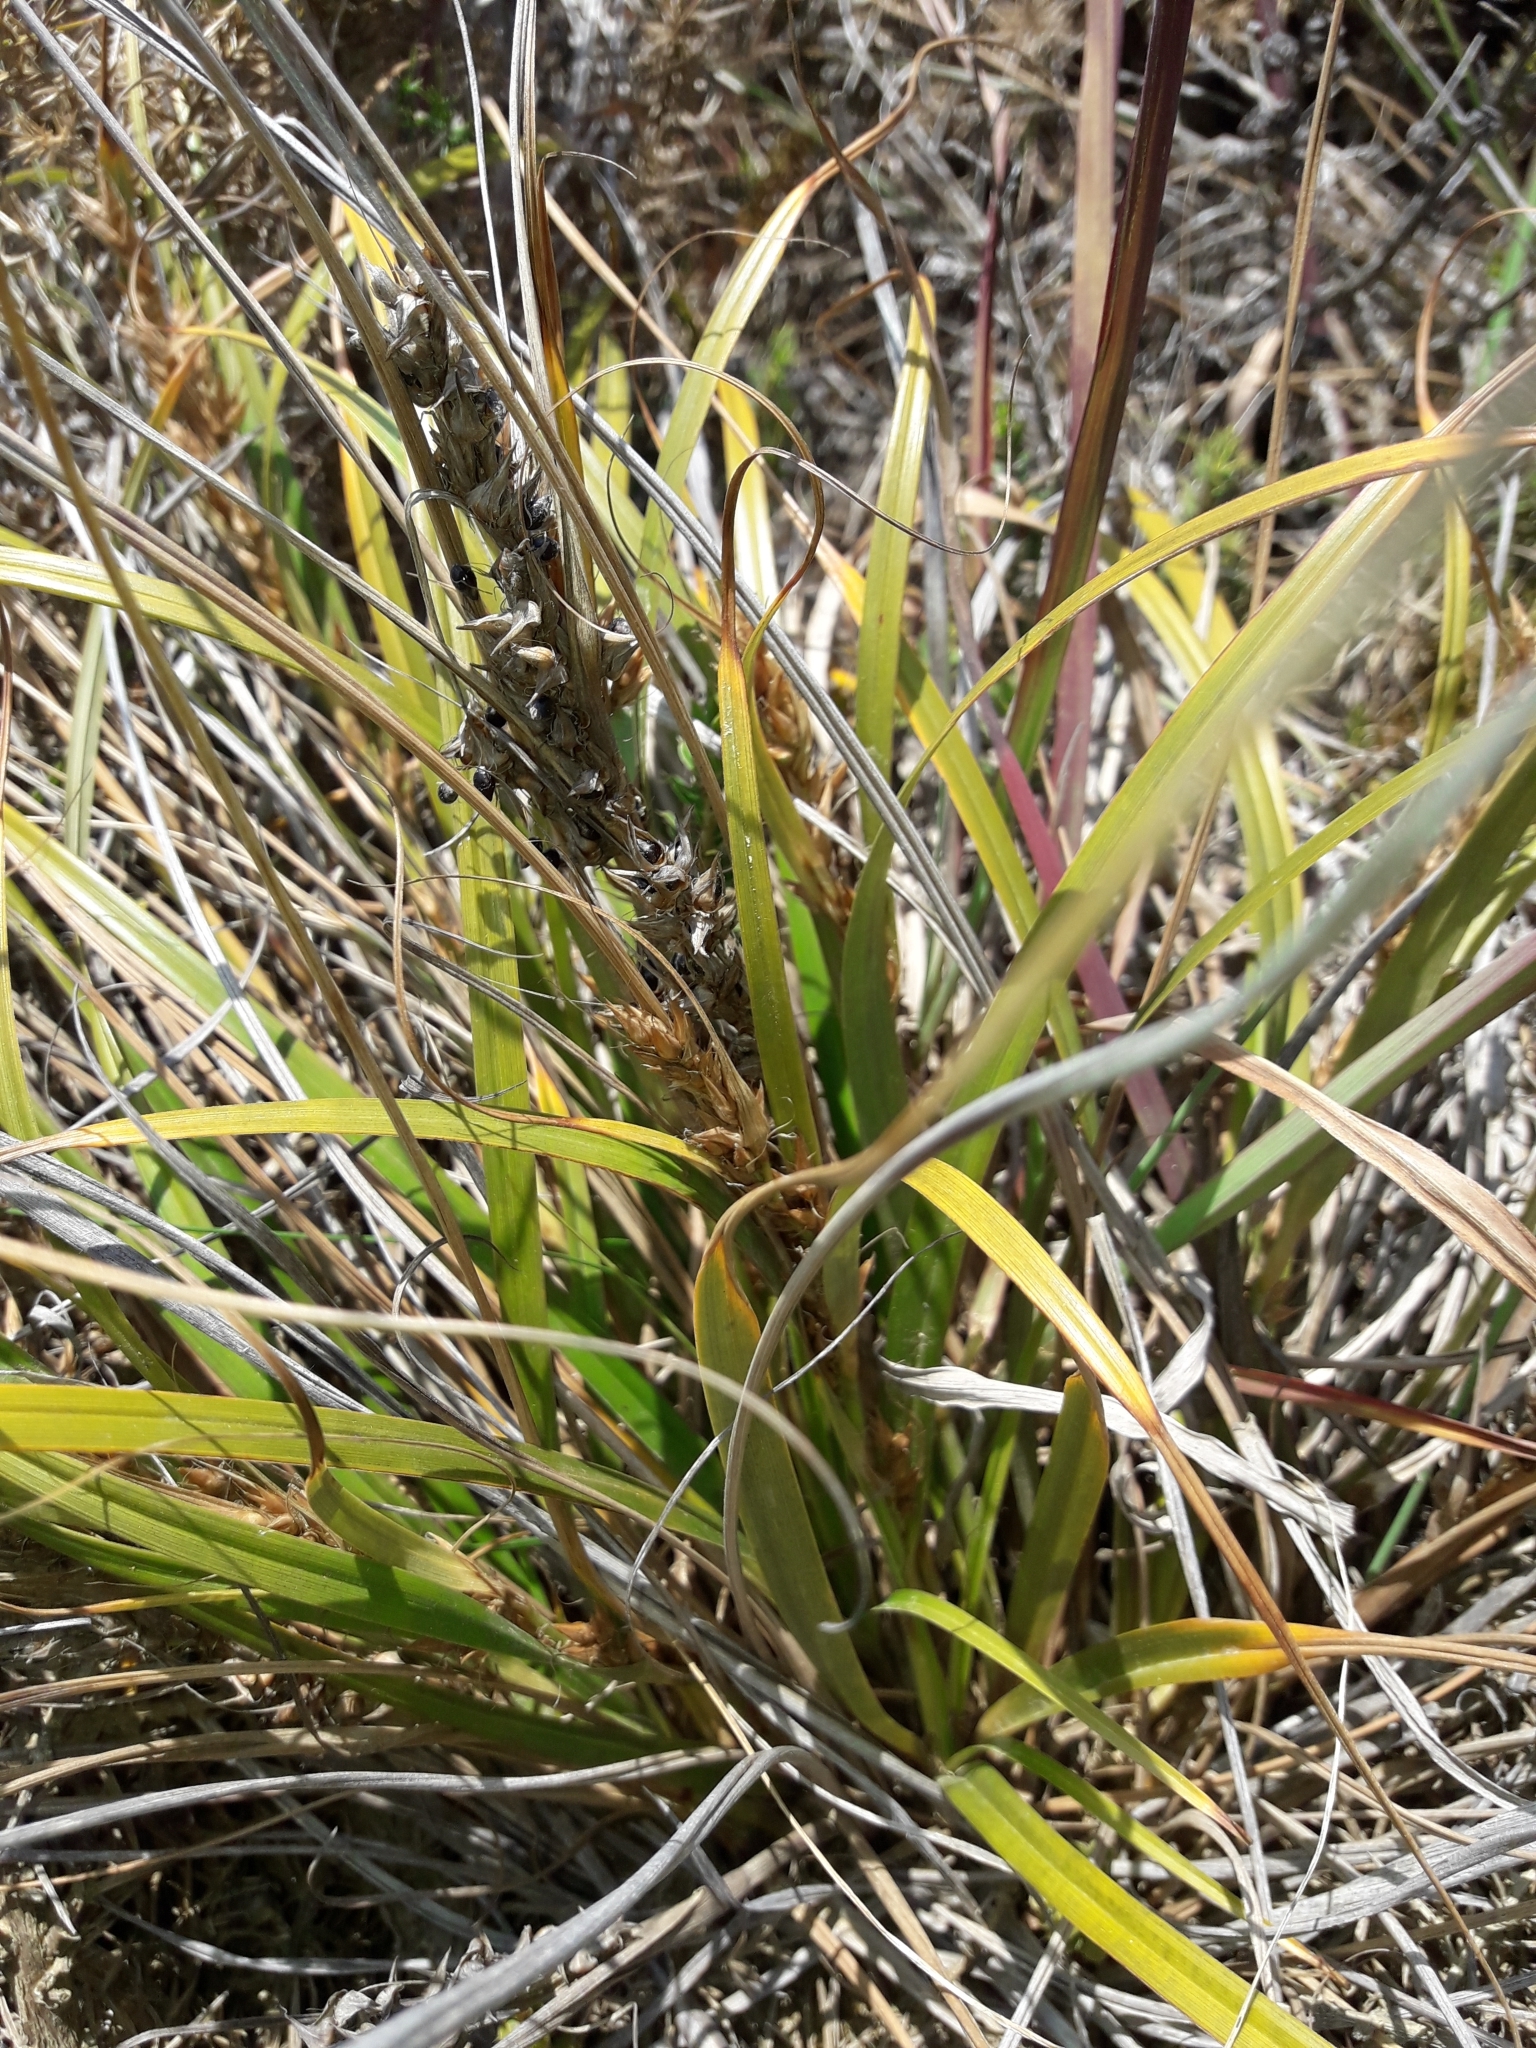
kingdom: Plantae
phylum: Tracheophyta
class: Liliopsida
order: Poales
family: Cyperaceae
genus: Morelotia
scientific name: Morelotia affinis
